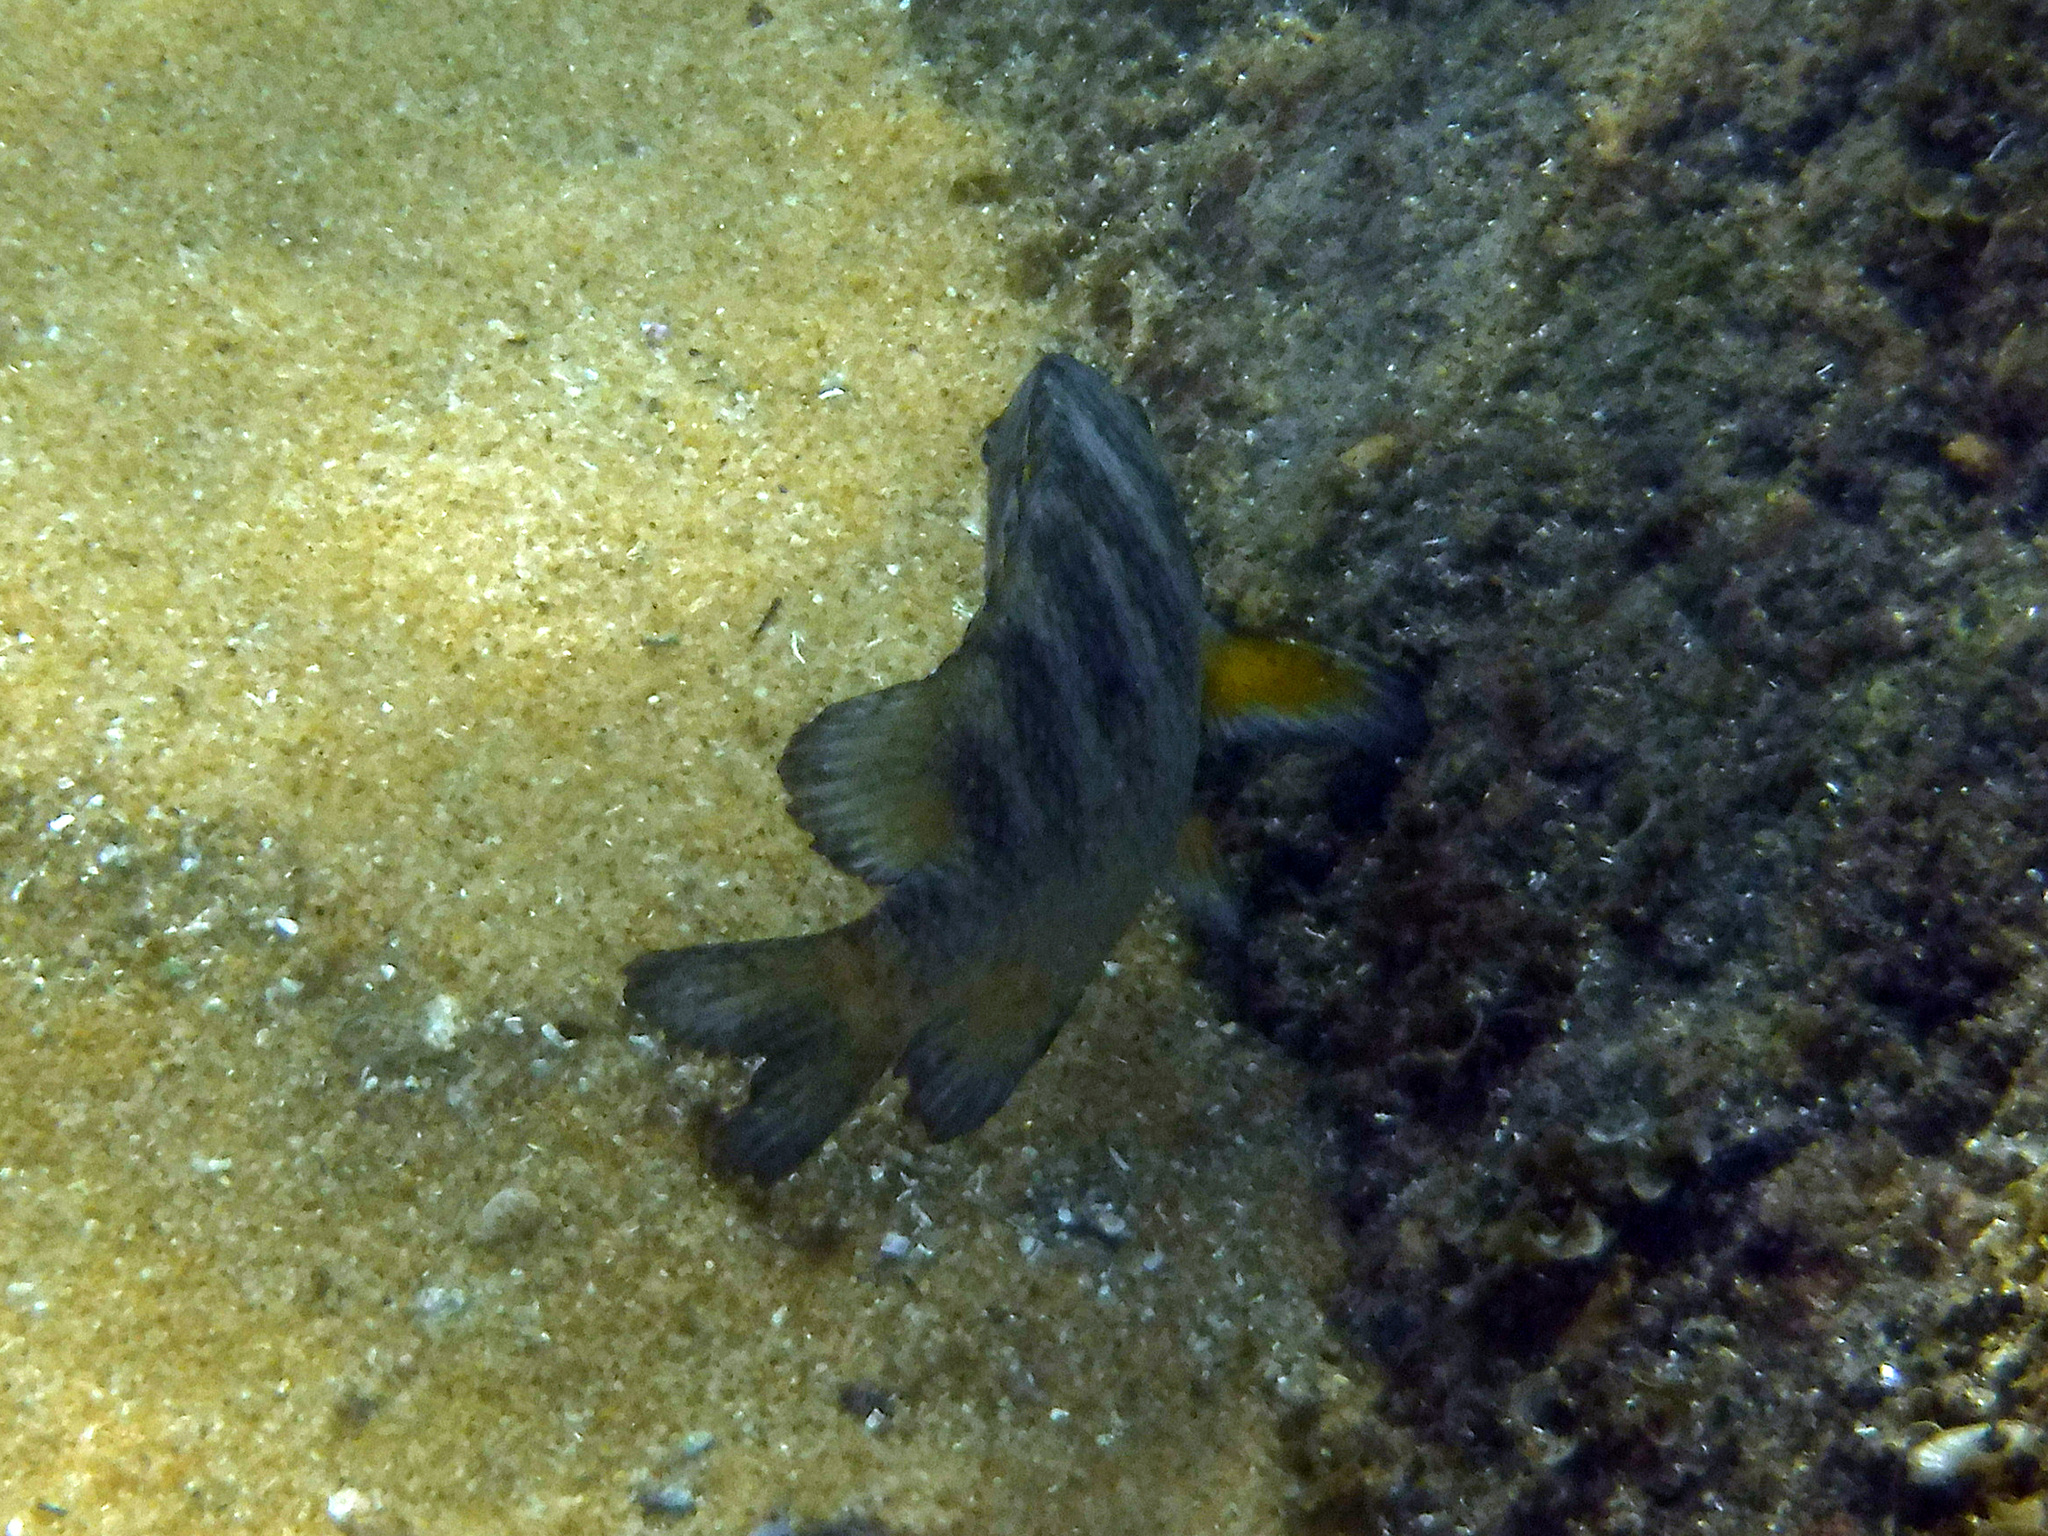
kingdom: Animalia
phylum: Chordata
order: Perciformes
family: Pomacentridae
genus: Abudefduf
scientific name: Abudefduf declivifrons
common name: Mexican night sergeant
